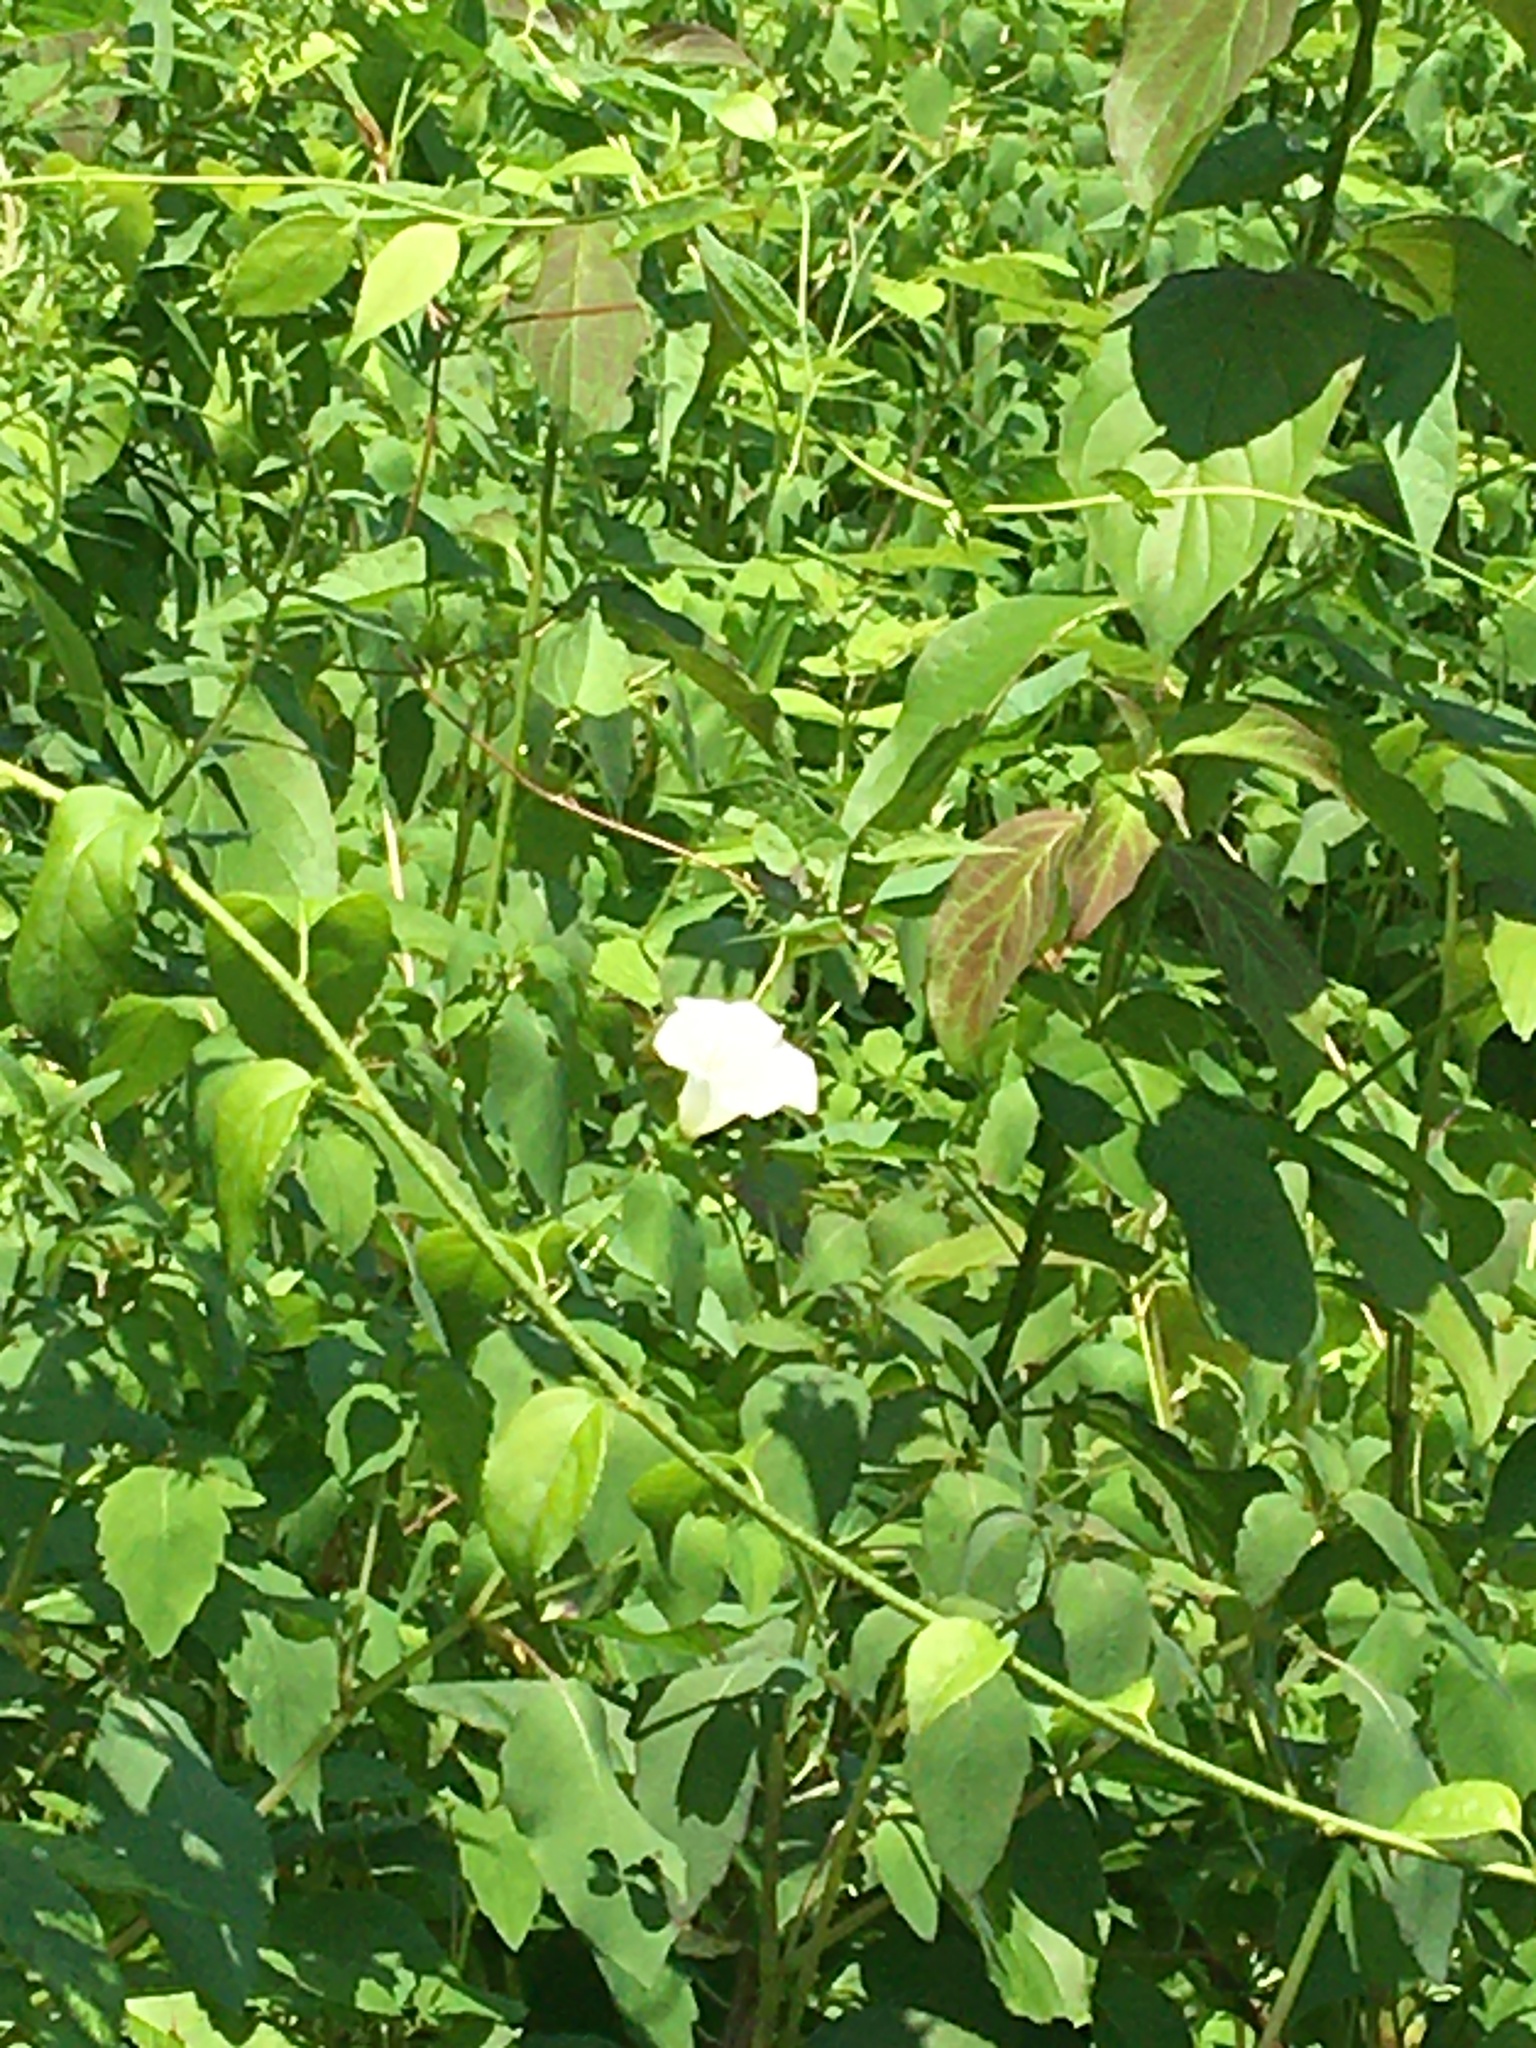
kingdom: Plantae
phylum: Tracheophyta
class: Magnoliopsida
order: Celastrales
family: Celastraceae
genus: Celastrus
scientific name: Celastrus orbiculatus
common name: Oriental bittersweet
